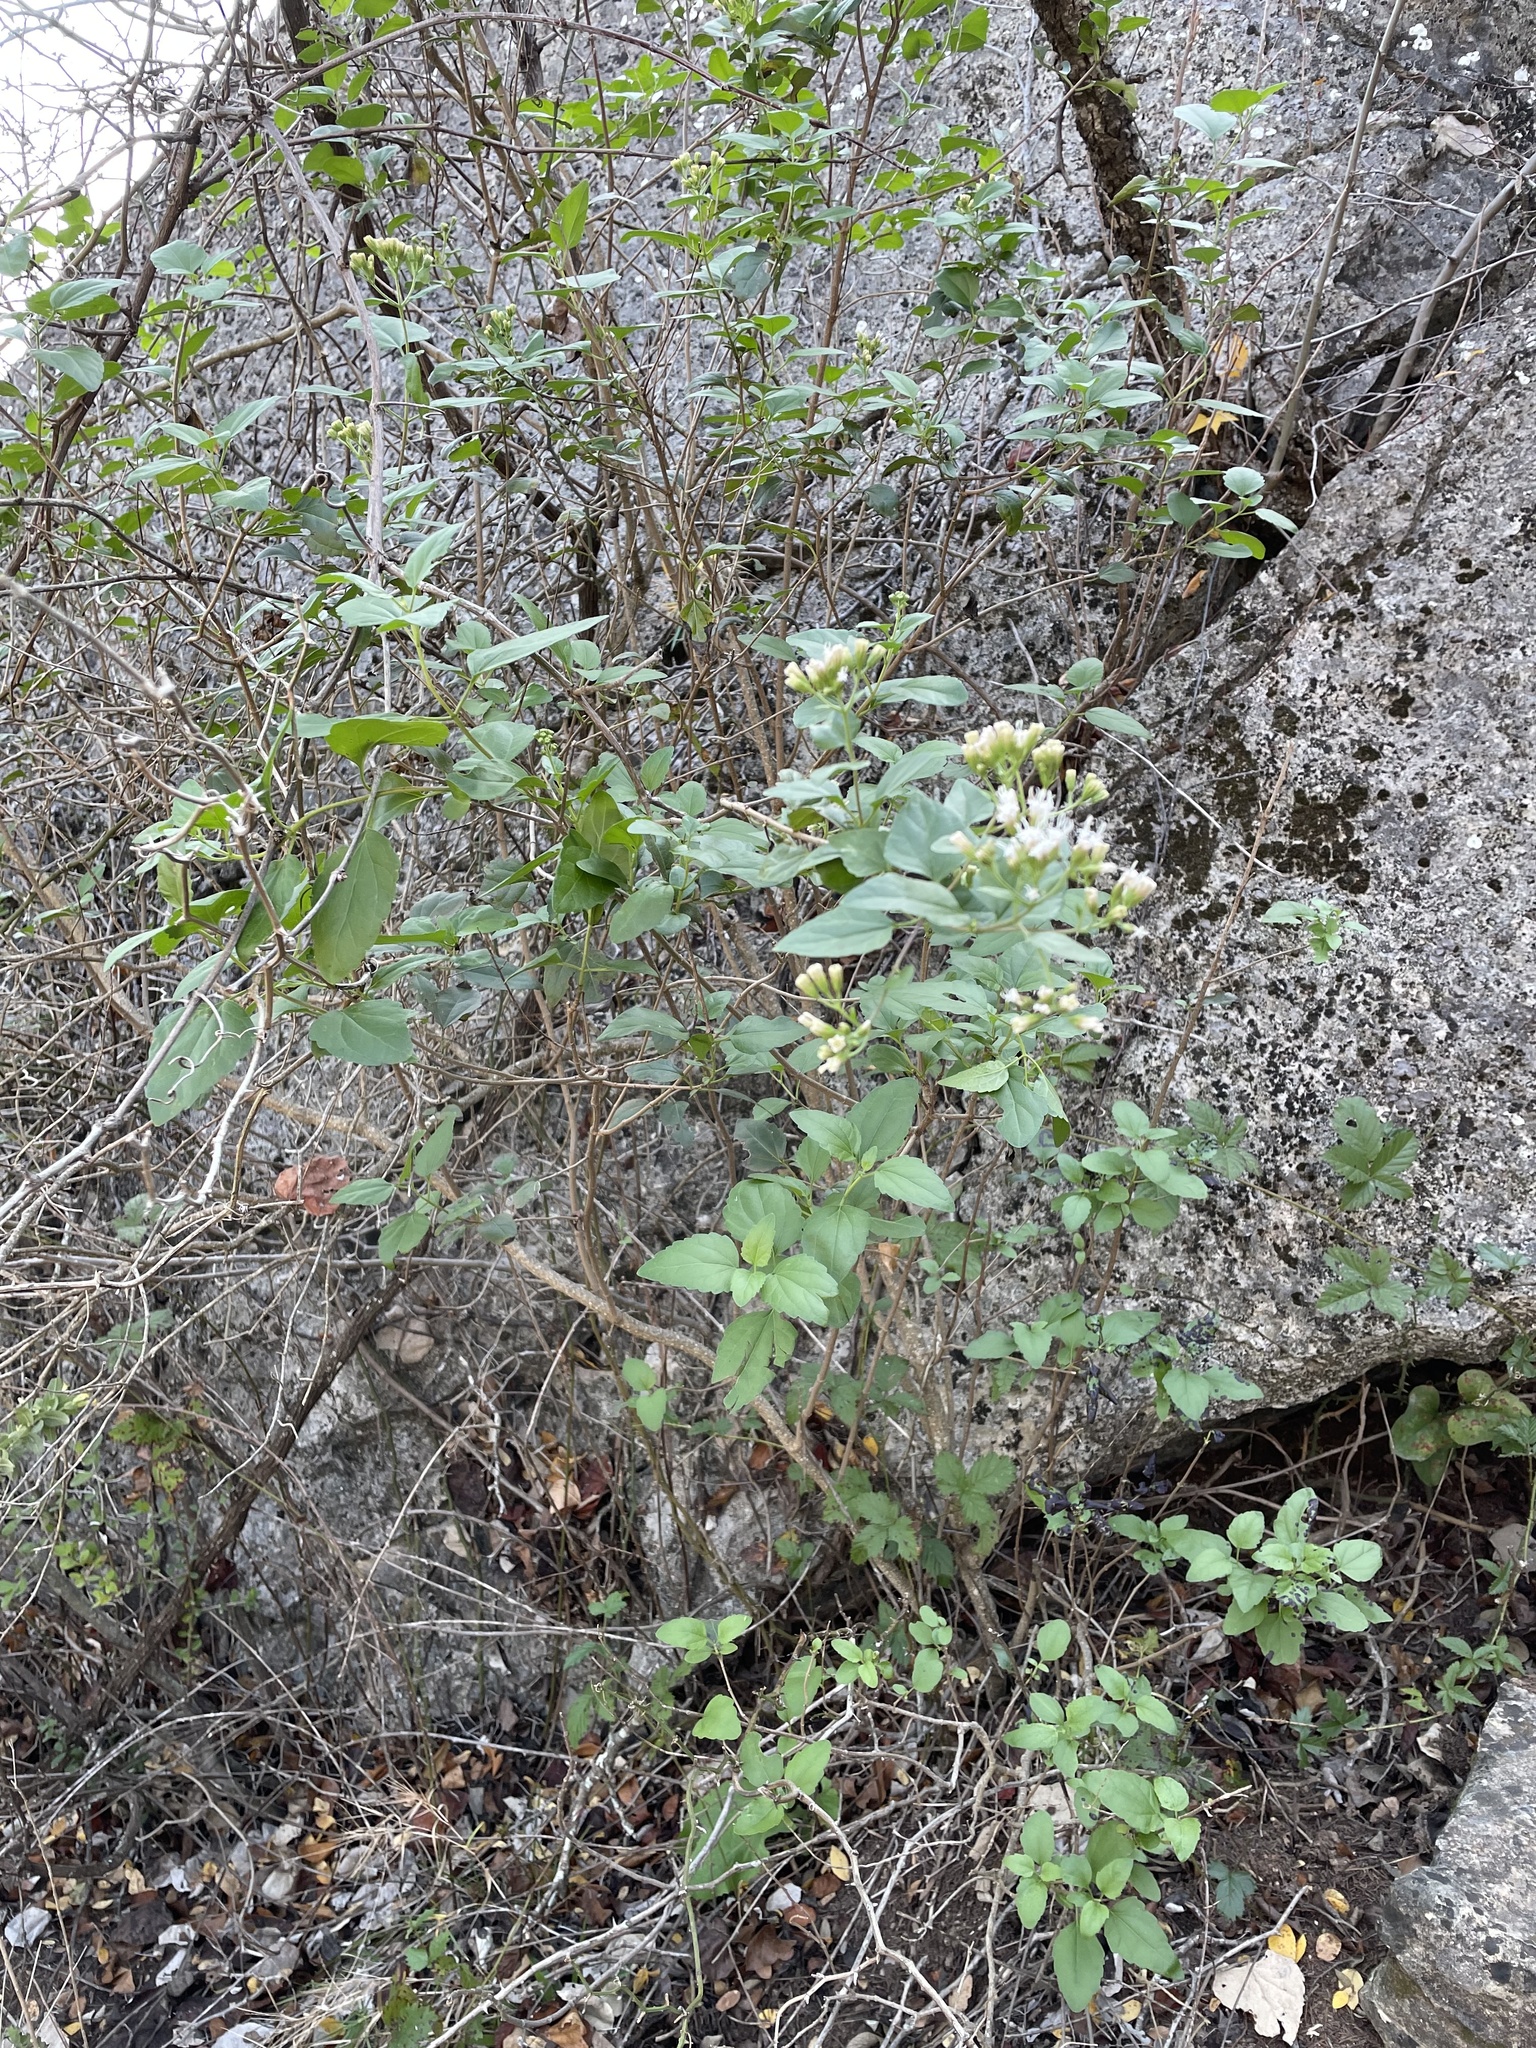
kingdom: Plantae
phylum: Tracheophyta
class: Magnoliopsida
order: Asterales
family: Asteraceae
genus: Ageratina
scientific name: Ageratina havanensis
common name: Havana snakeroot
